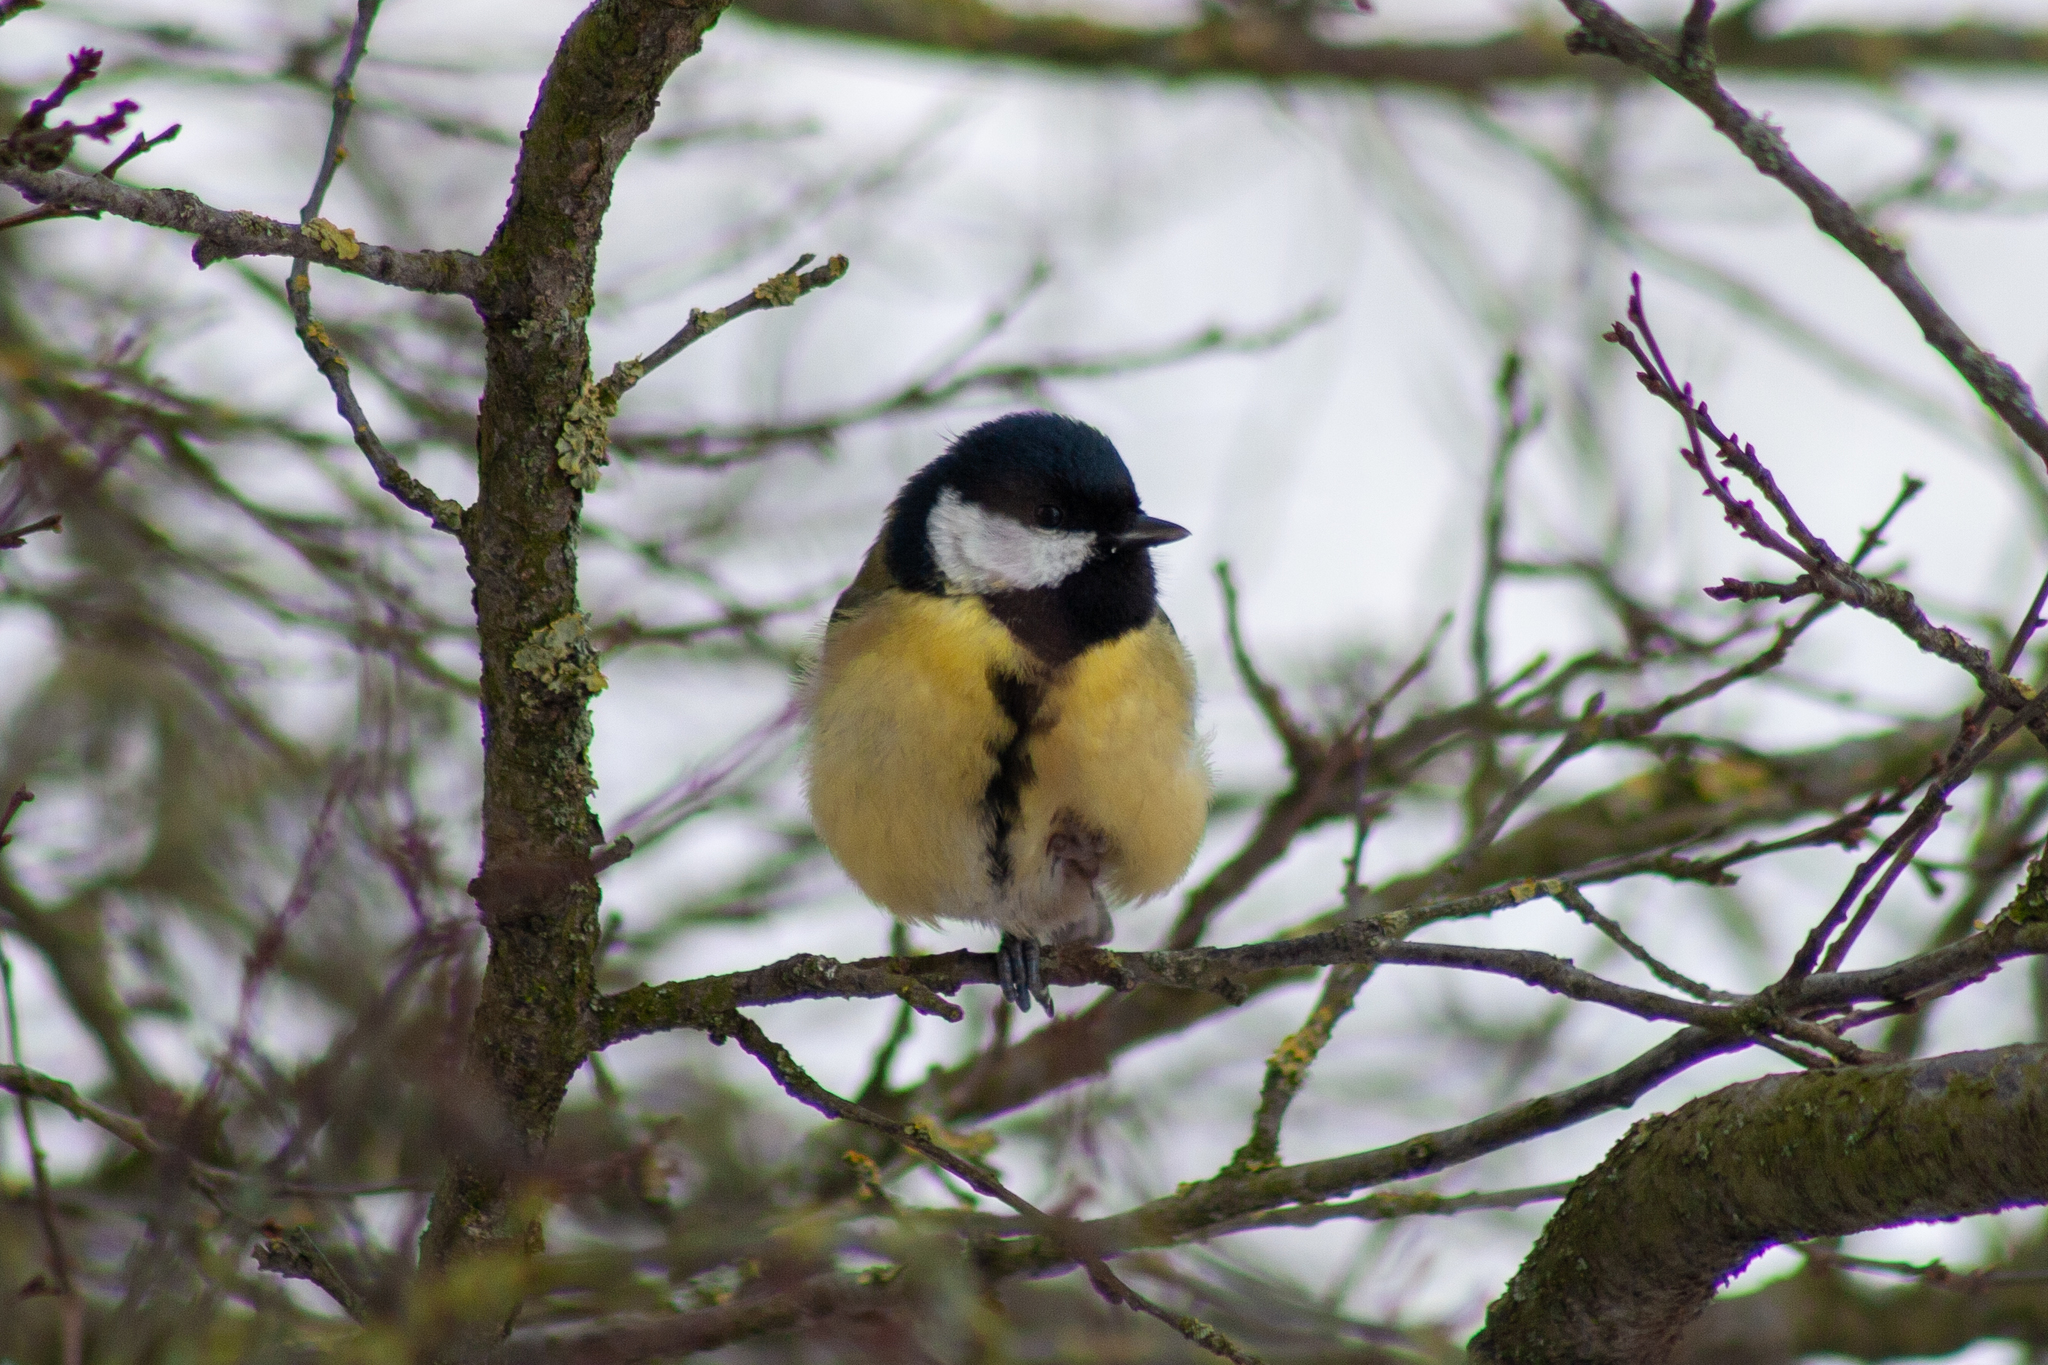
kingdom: Animalia
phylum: Chordata
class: Aves
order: Passeriformes
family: Paridae
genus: Parus
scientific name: Parus major
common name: Great tit
